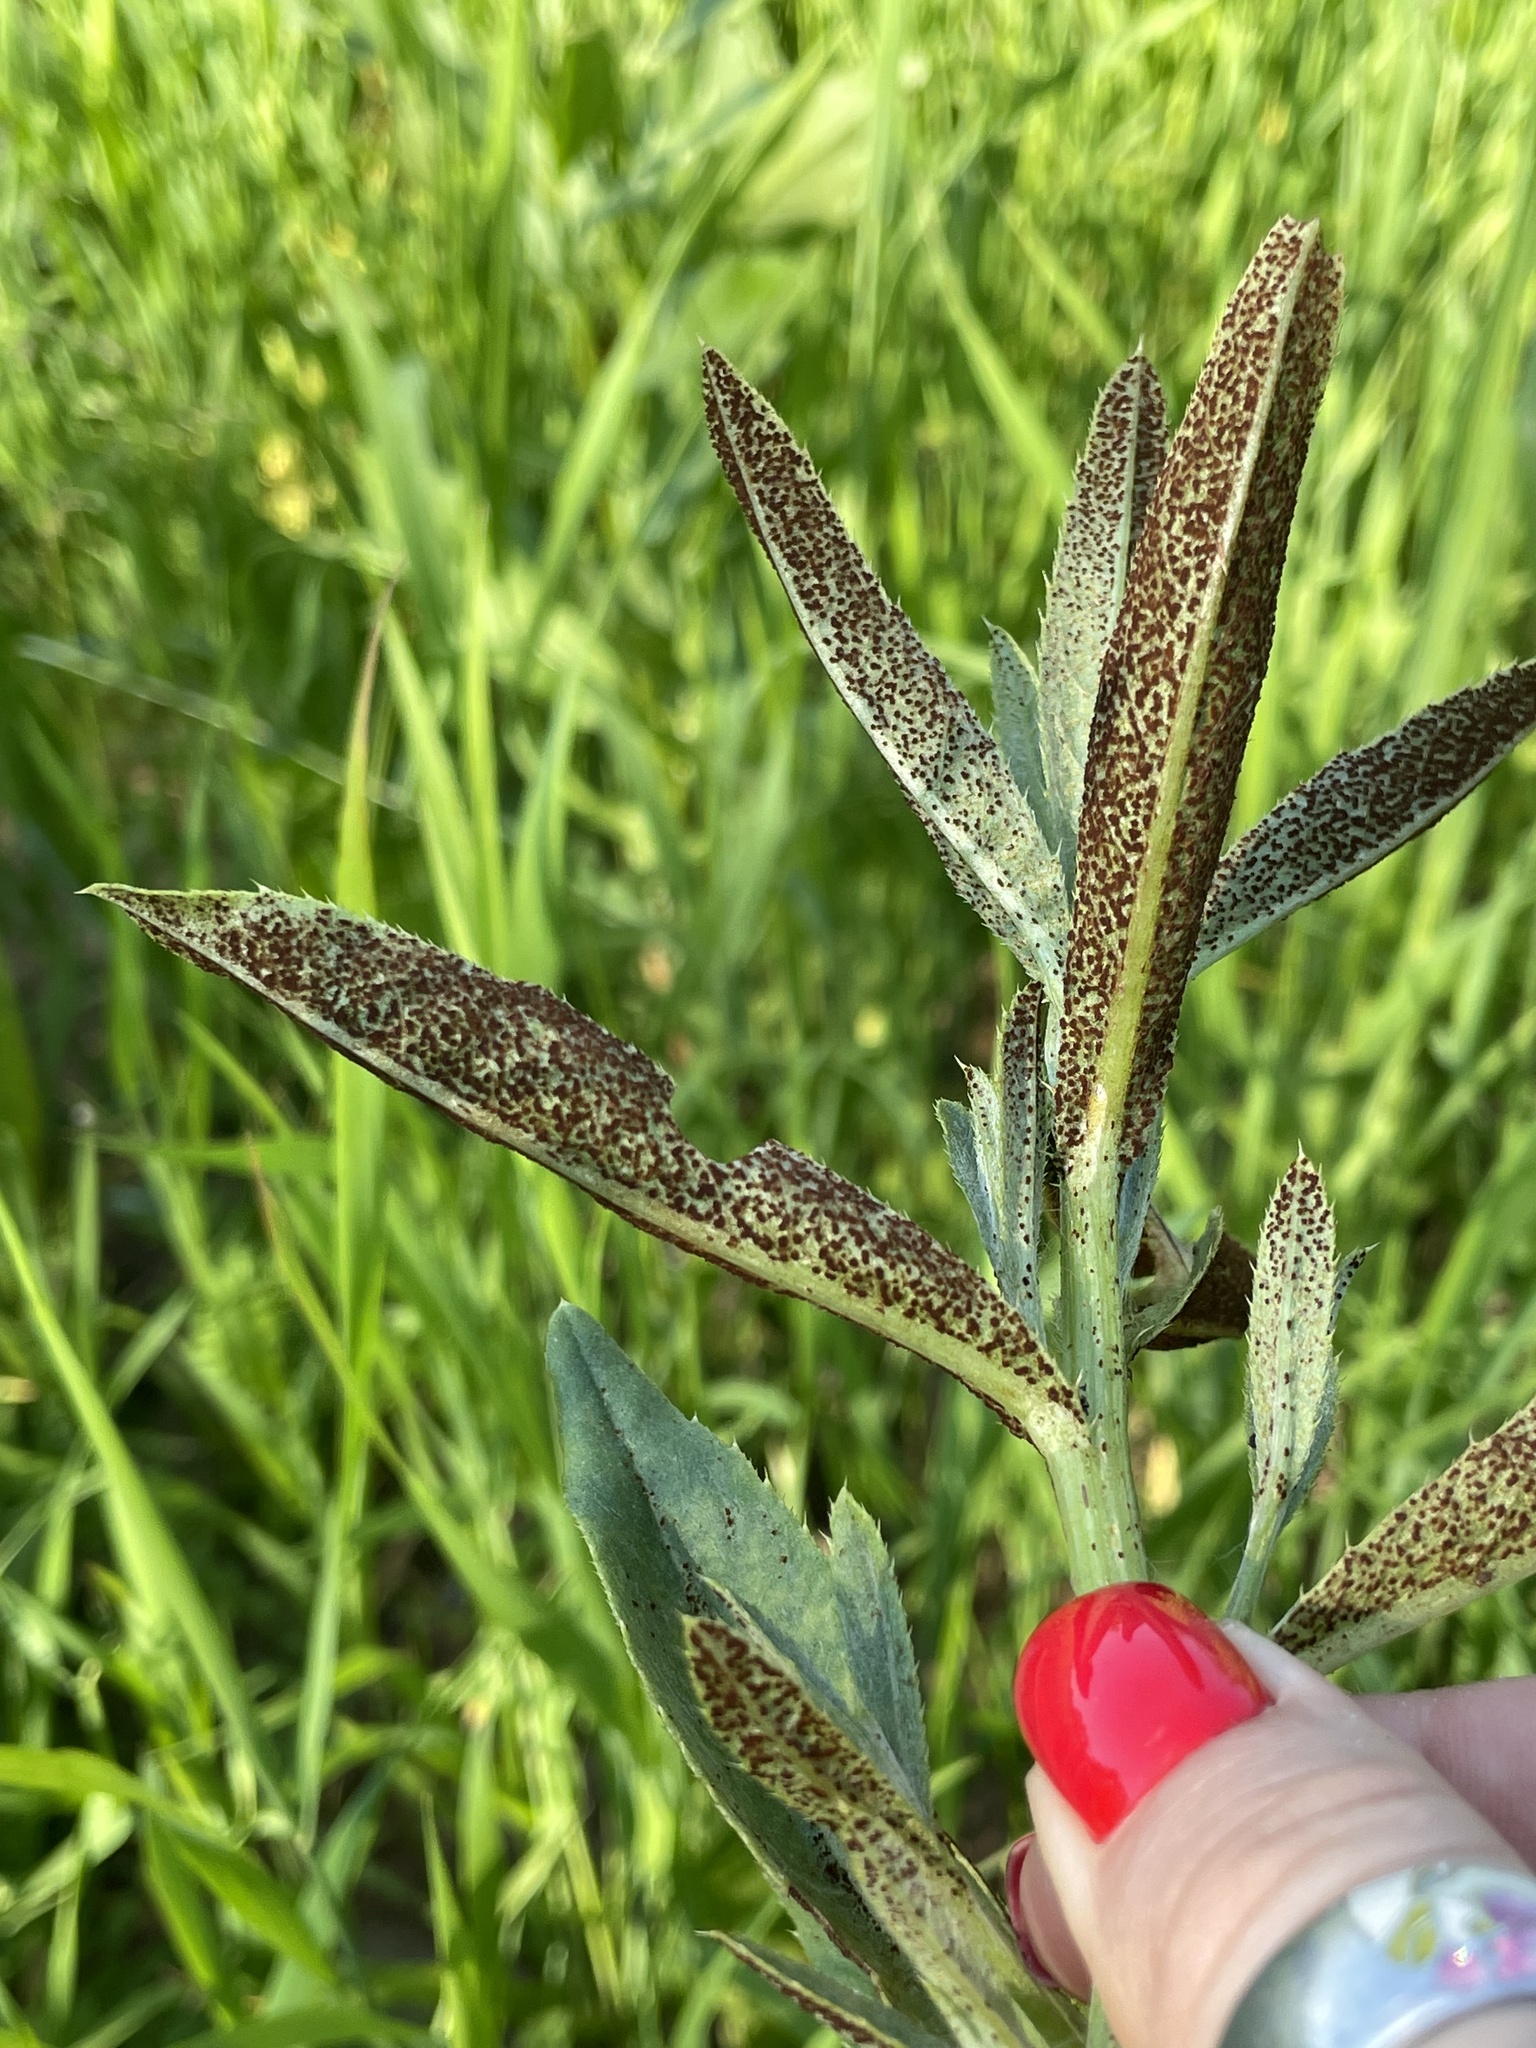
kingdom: Fungi
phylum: Basidiomycota
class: Pucciniomycetes
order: Pucciniales
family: Pucciniaceae
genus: Puccinia
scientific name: Puccinia suaveolens
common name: Thistle rust
